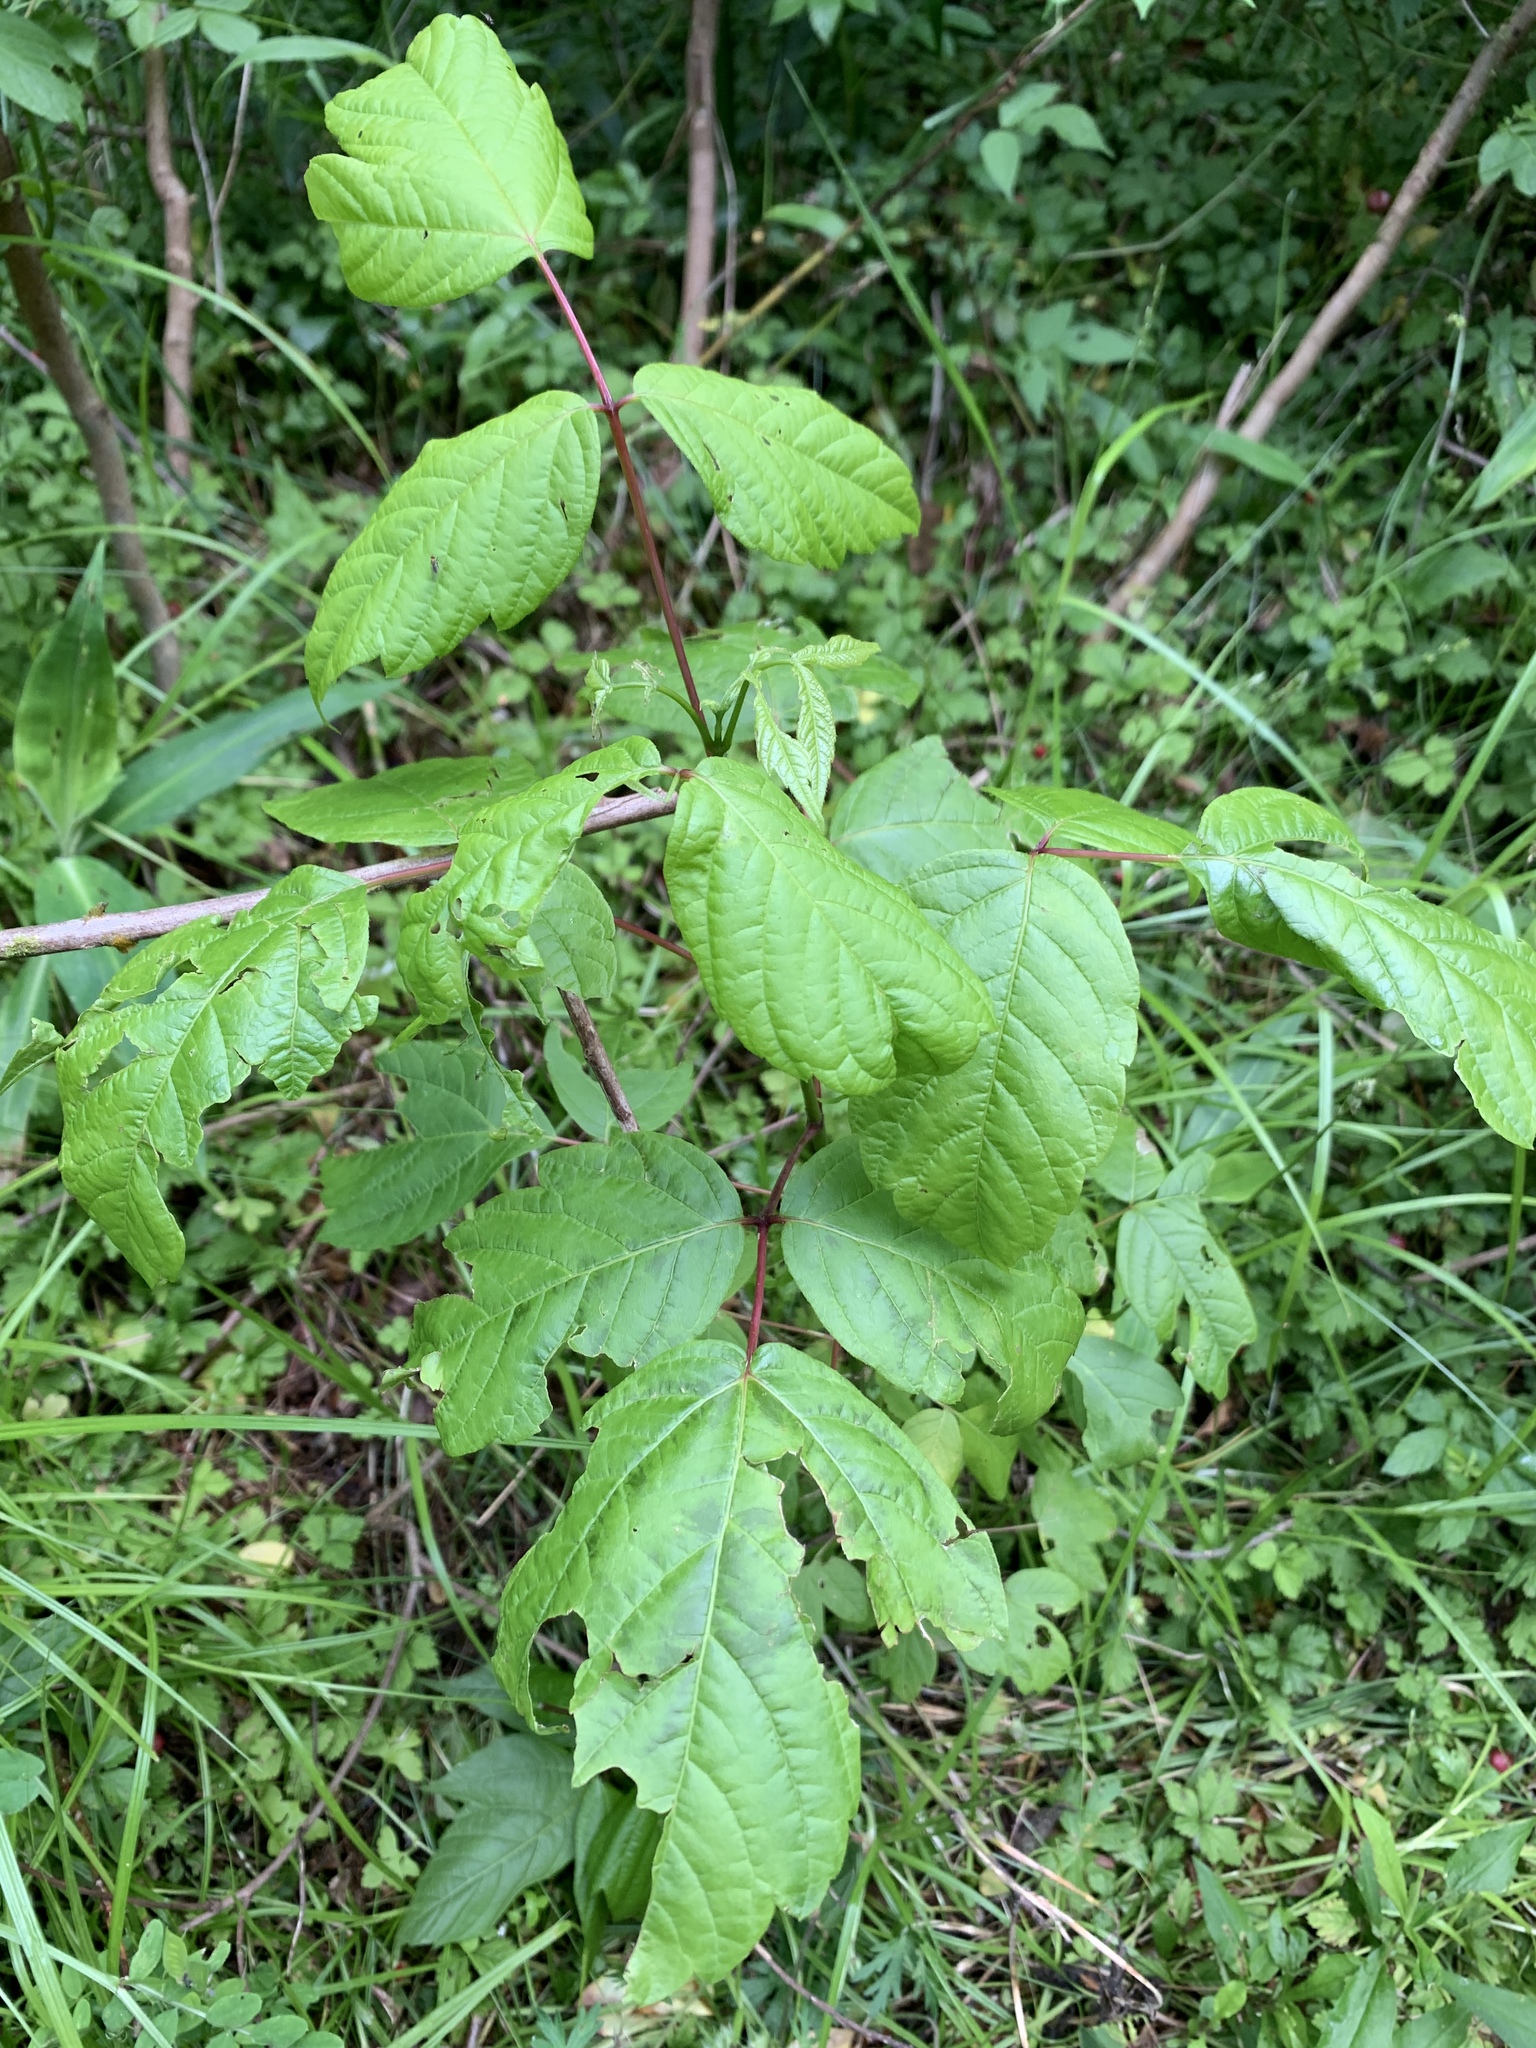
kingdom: Plantae
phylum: Tracheophyta
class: Magnoliopsida
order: Sapindales
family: Sapindaceae
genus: Acer
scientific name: Acer negundo
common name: Ashleaf maple
